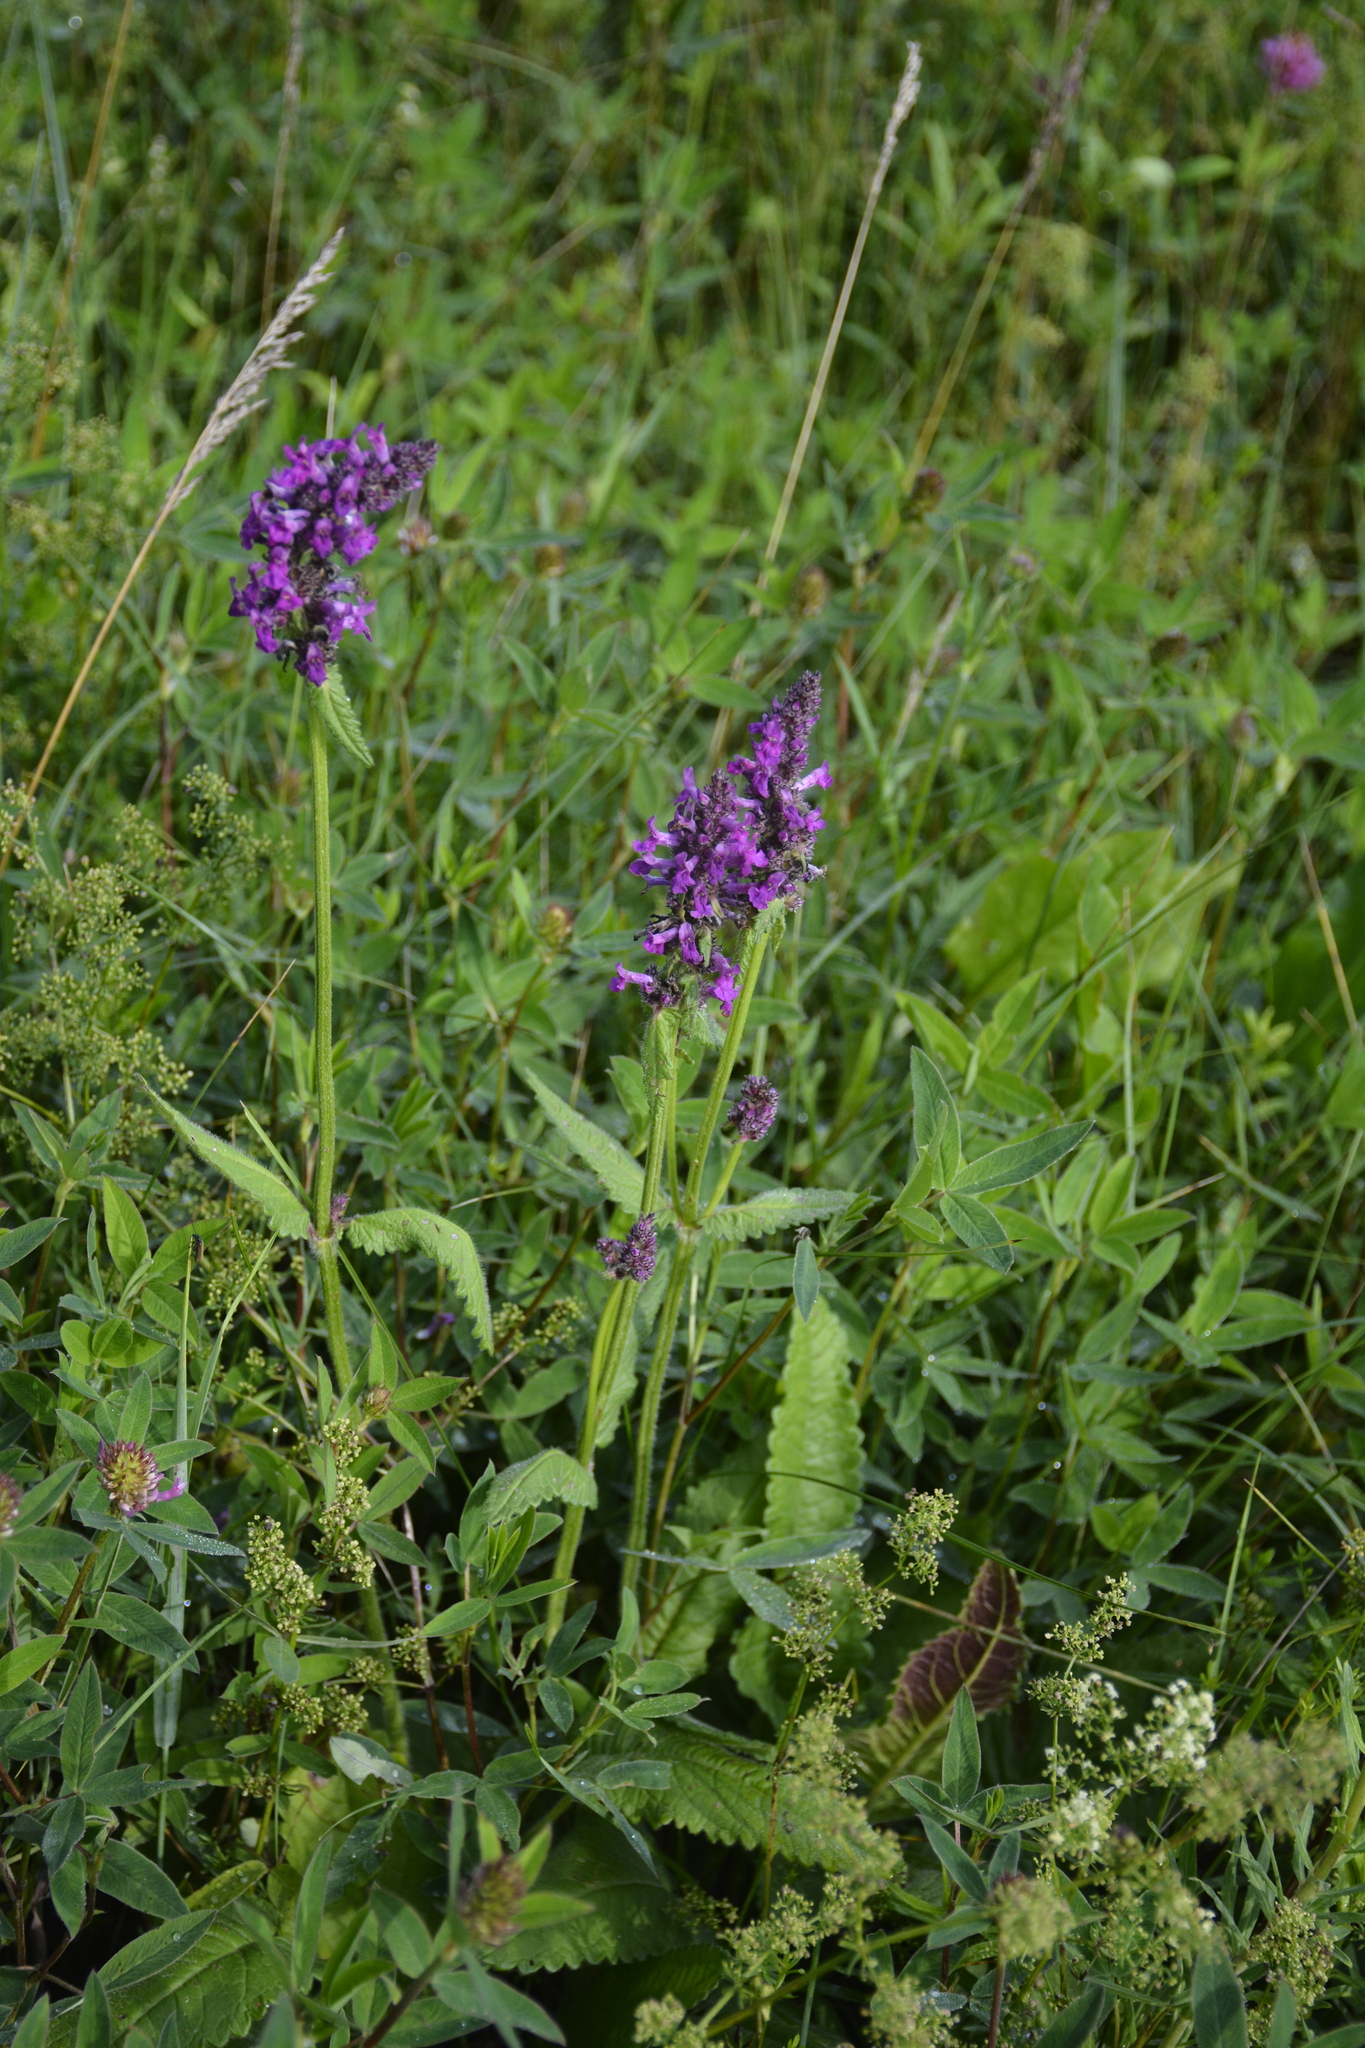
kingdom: Plantae
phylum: Tracheophyta
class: Magnoliopsida
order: Lamiales
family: Lamiaceae
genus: Betonica
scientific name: Betonica officinalis
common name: Bishop's-wort
